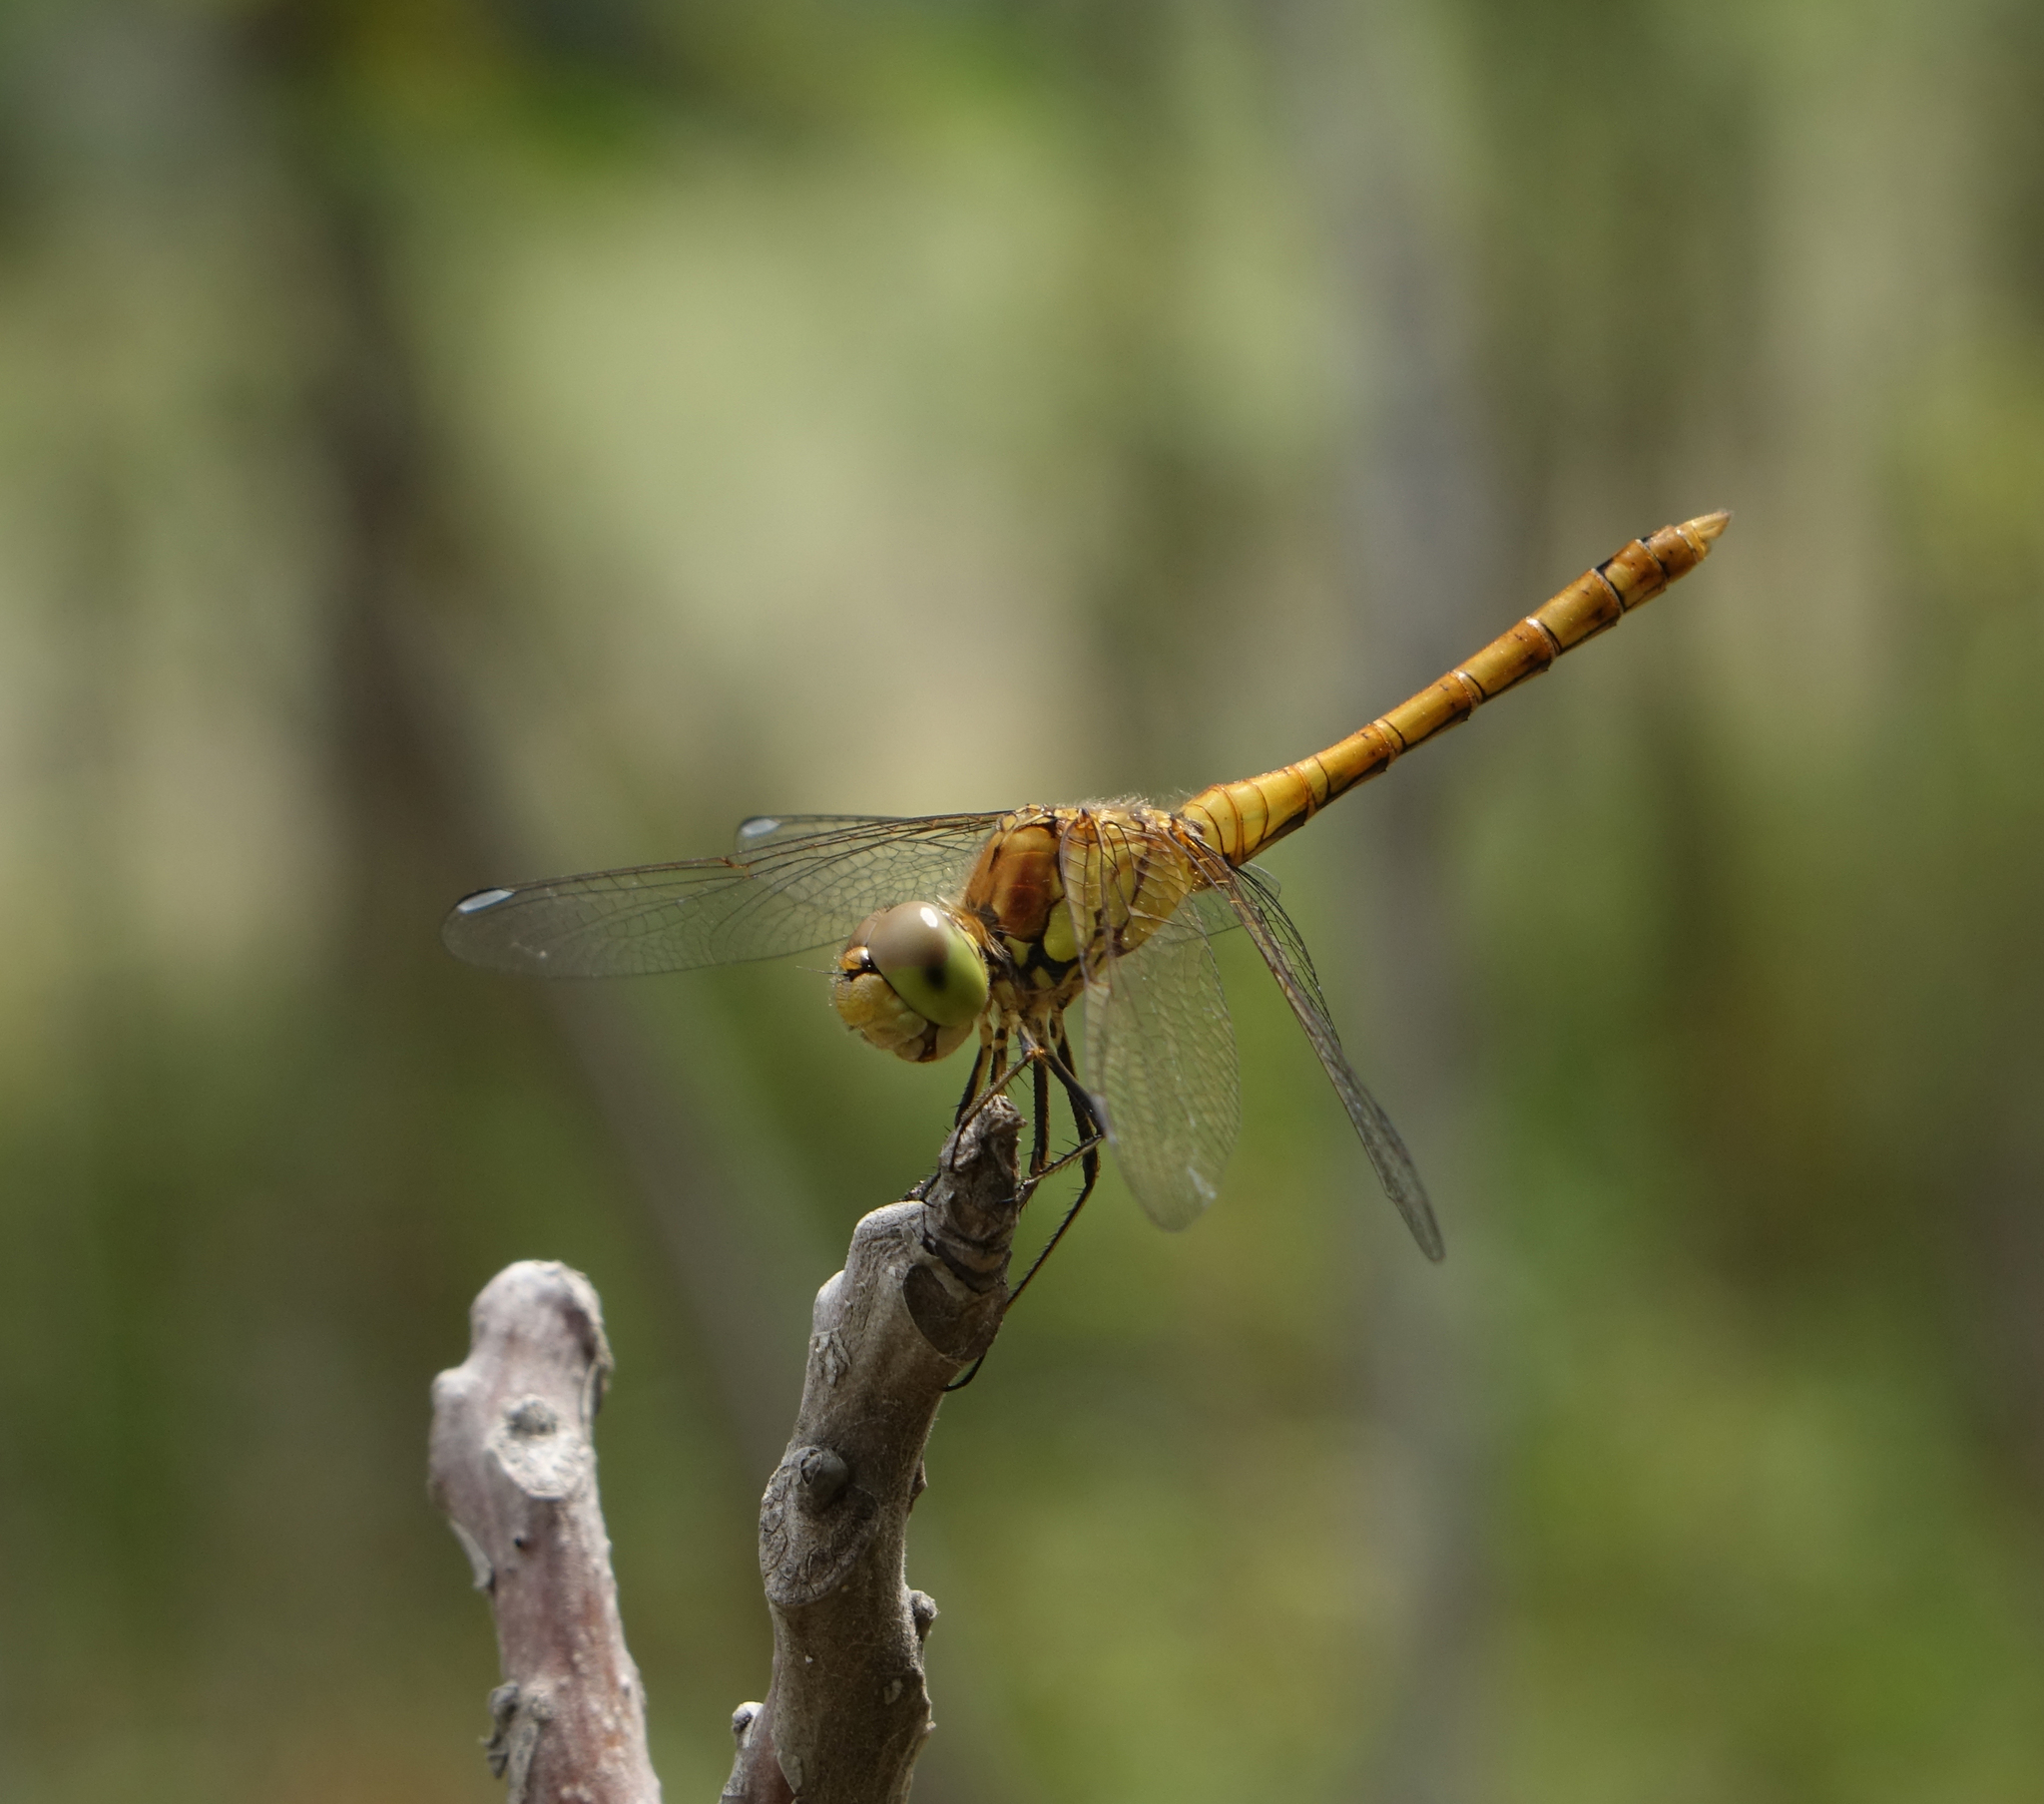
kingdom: Animalia
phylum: Arthropoda
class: Insecta
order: Odonata
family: Libellulidae
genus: Sympetrum
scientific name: Sympetrum striolatum
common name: Common darter
